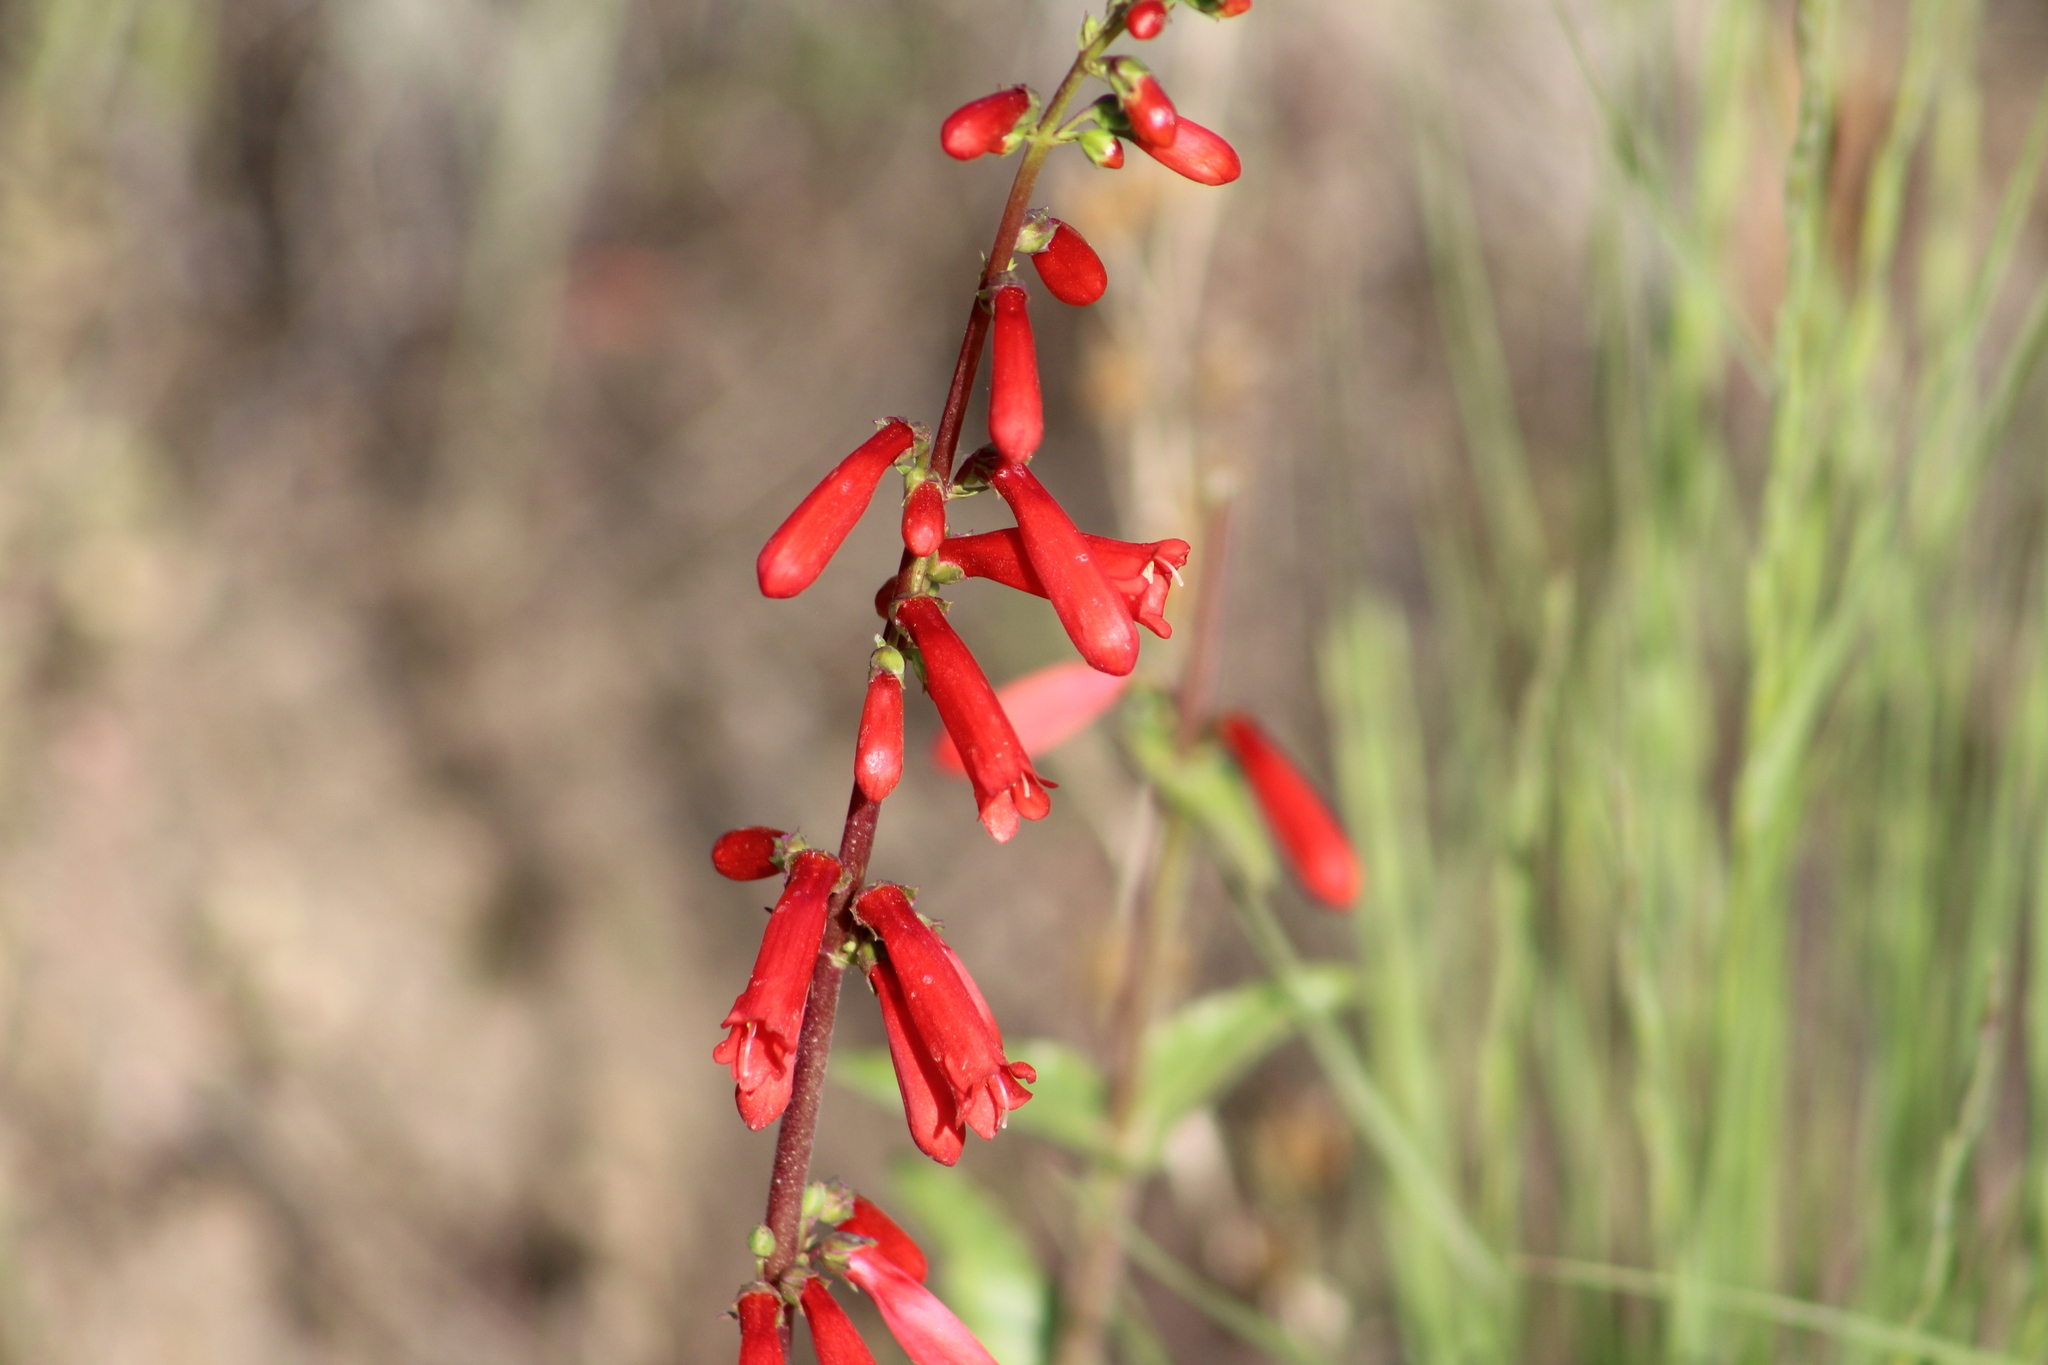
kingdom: Plantae
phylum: Tracheophyta
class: Magnoliopsida
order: Lamiales
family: Plantaginaceae
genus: Penstemon
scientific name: Penstemon eatonii
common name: Eaton's penstemon
